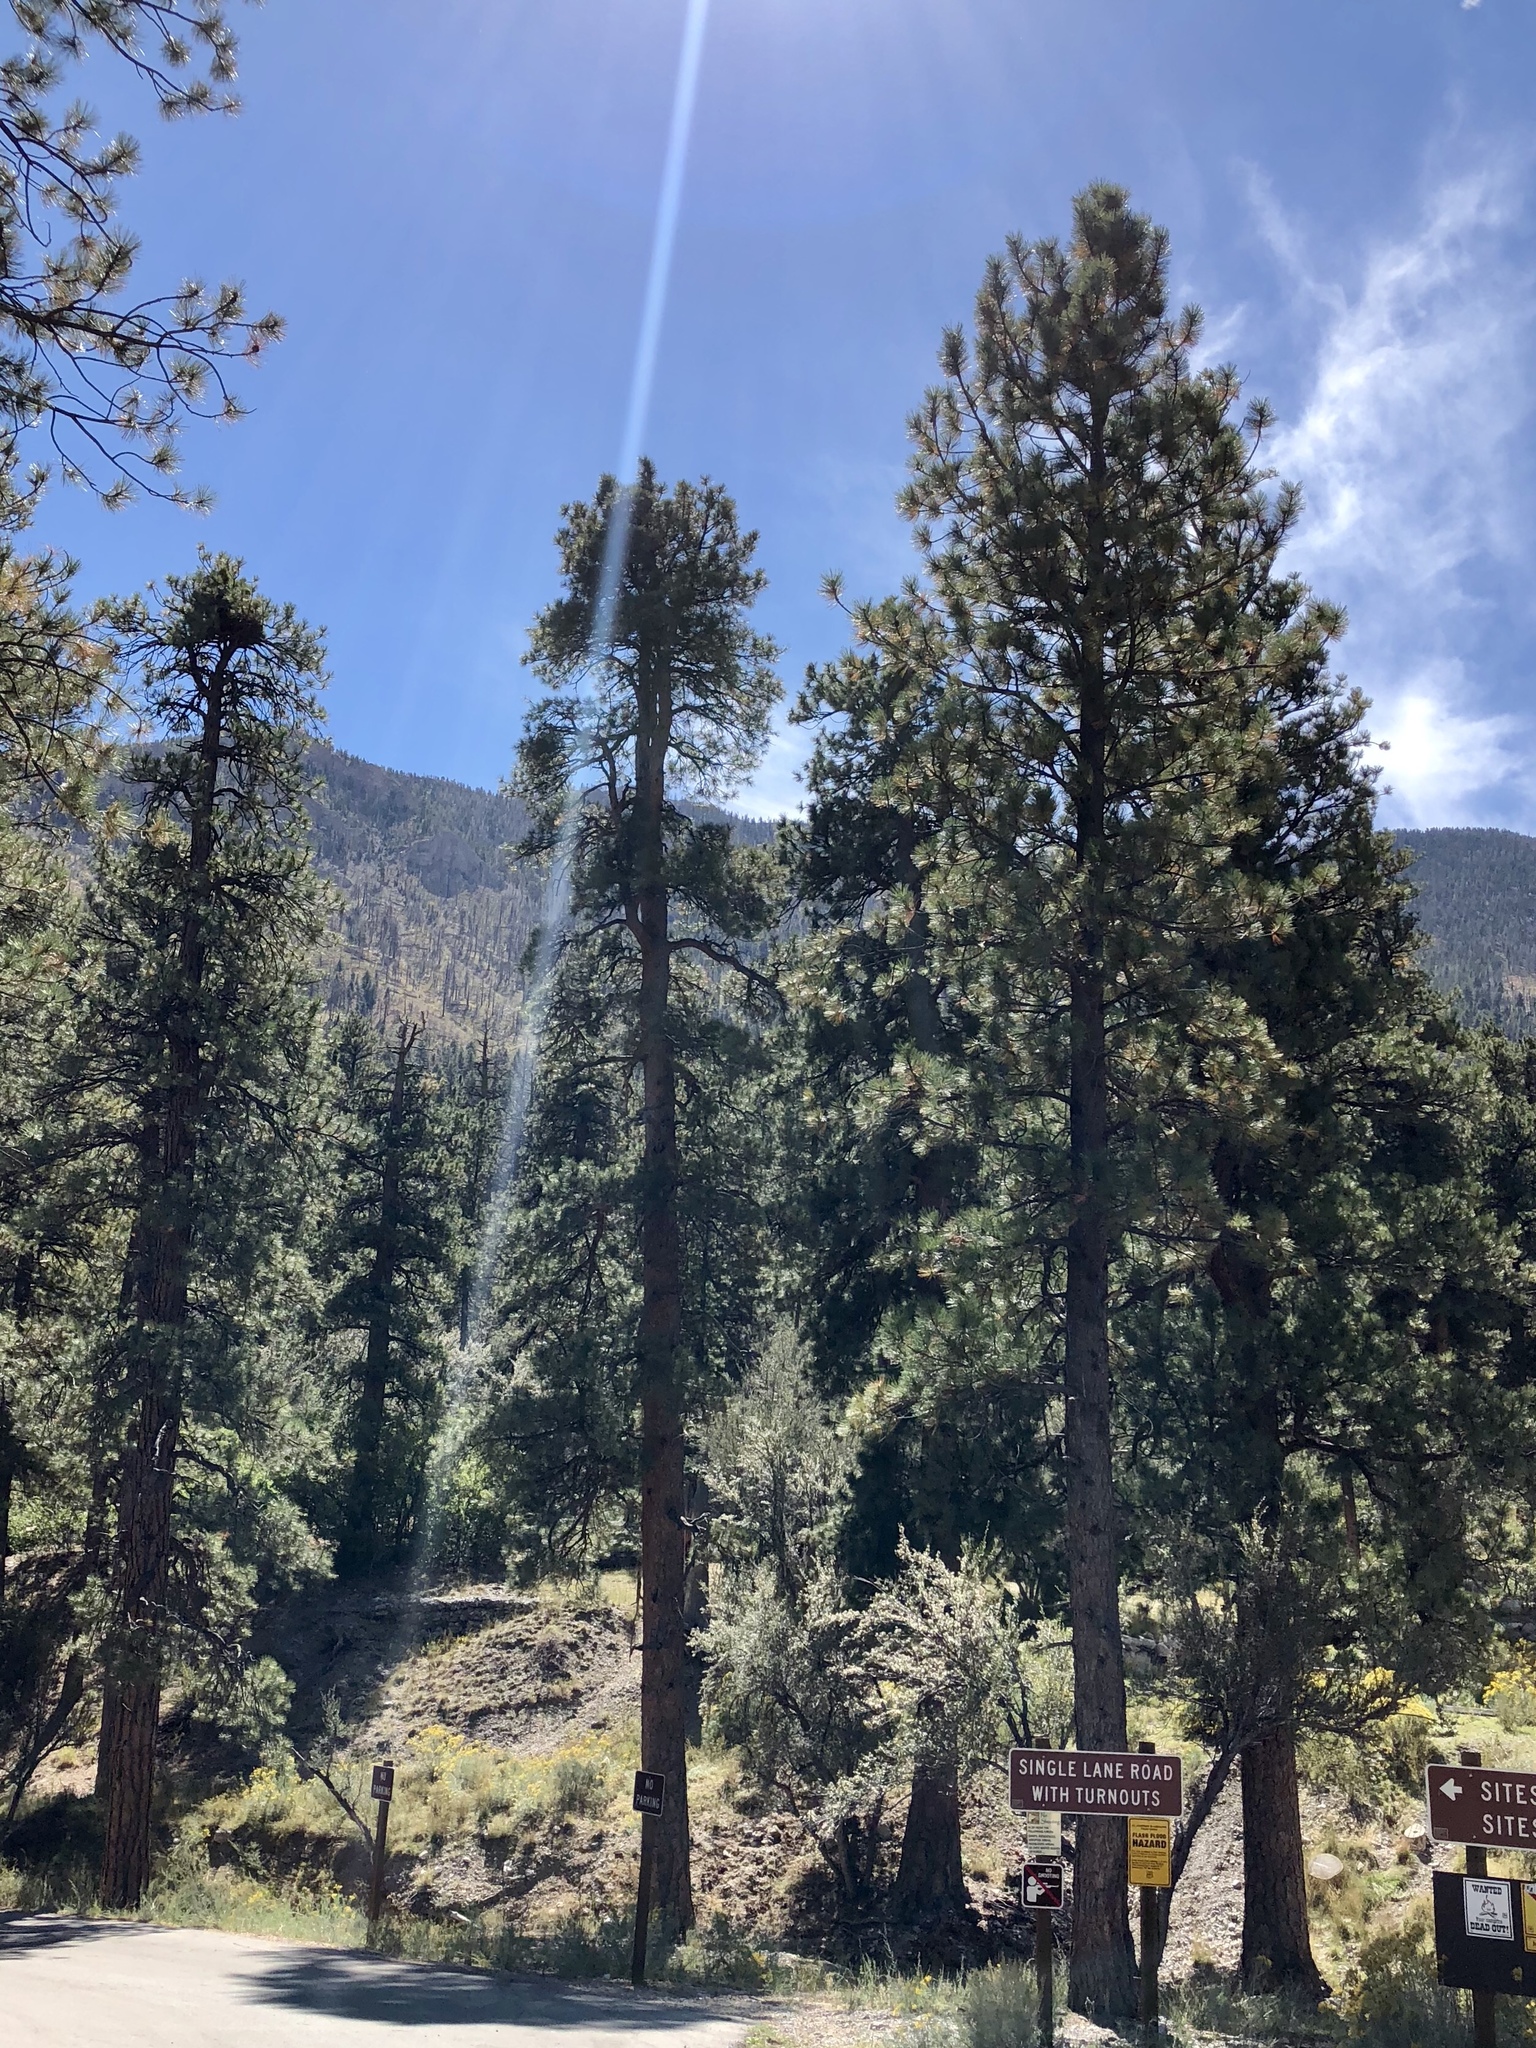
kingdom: Plantae
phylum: Tracheophyta
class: Pinopsida
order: Pinales
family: Pinaceae
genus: Pinus
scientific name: Pinus ponderosa
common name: Western yellow-pine
